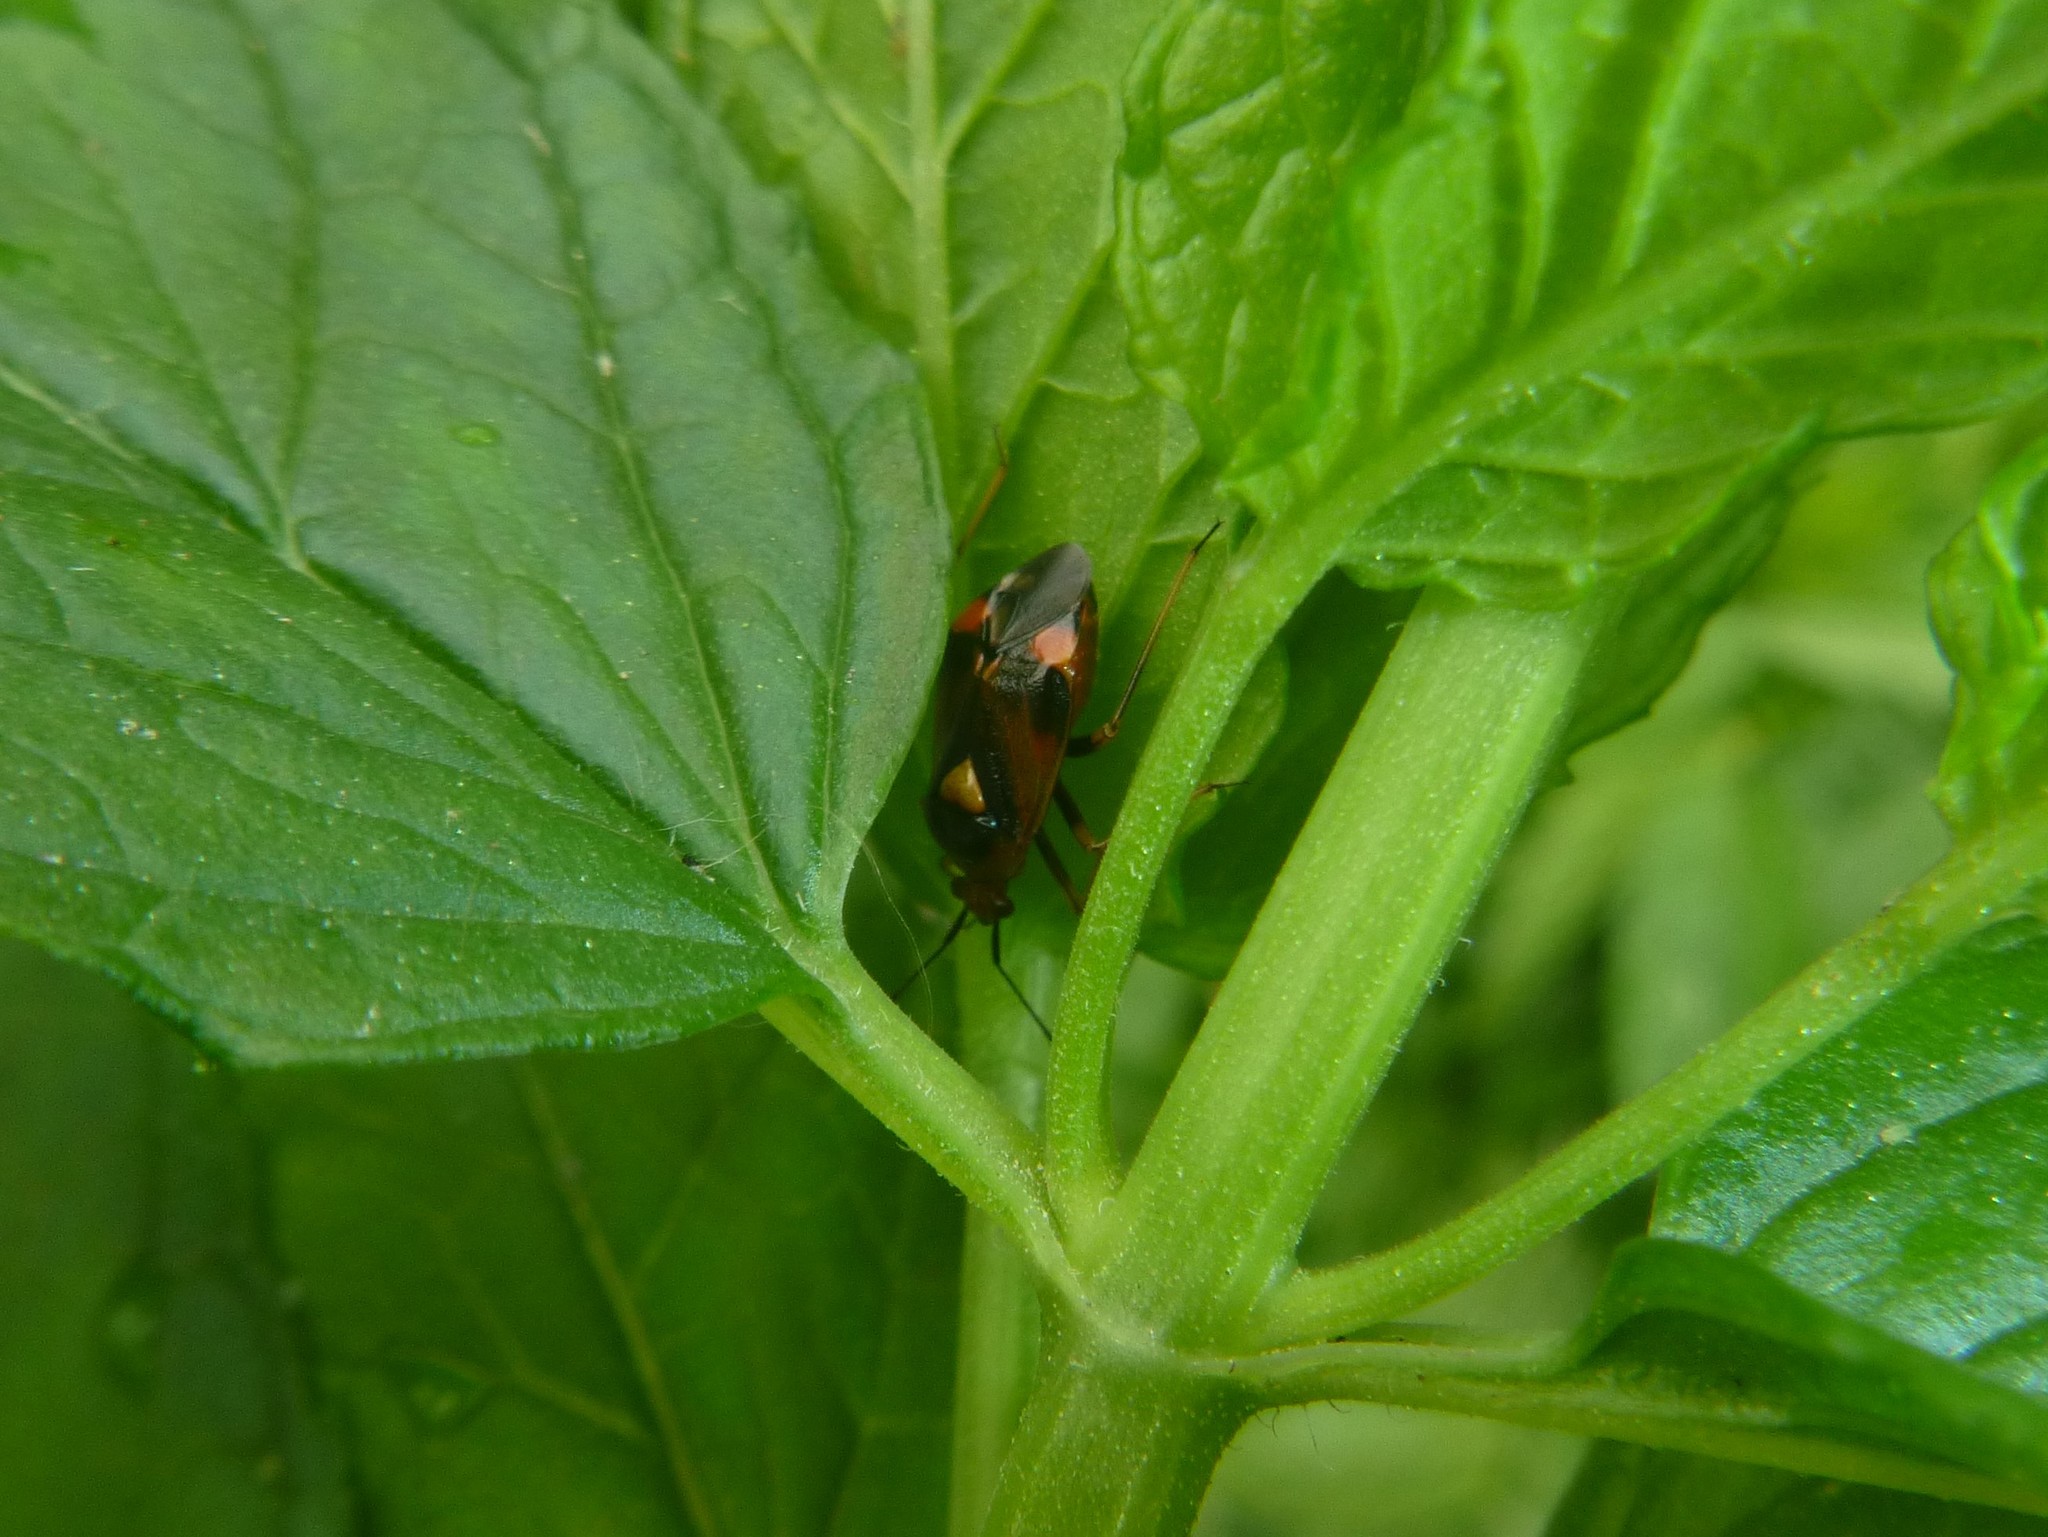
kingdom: Animalia
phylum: Arthropoda
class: Insecta
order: Hemiptera
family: Miridae
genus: Deraeocoris
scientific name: Deraeocoris ruber
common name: Plant bug
